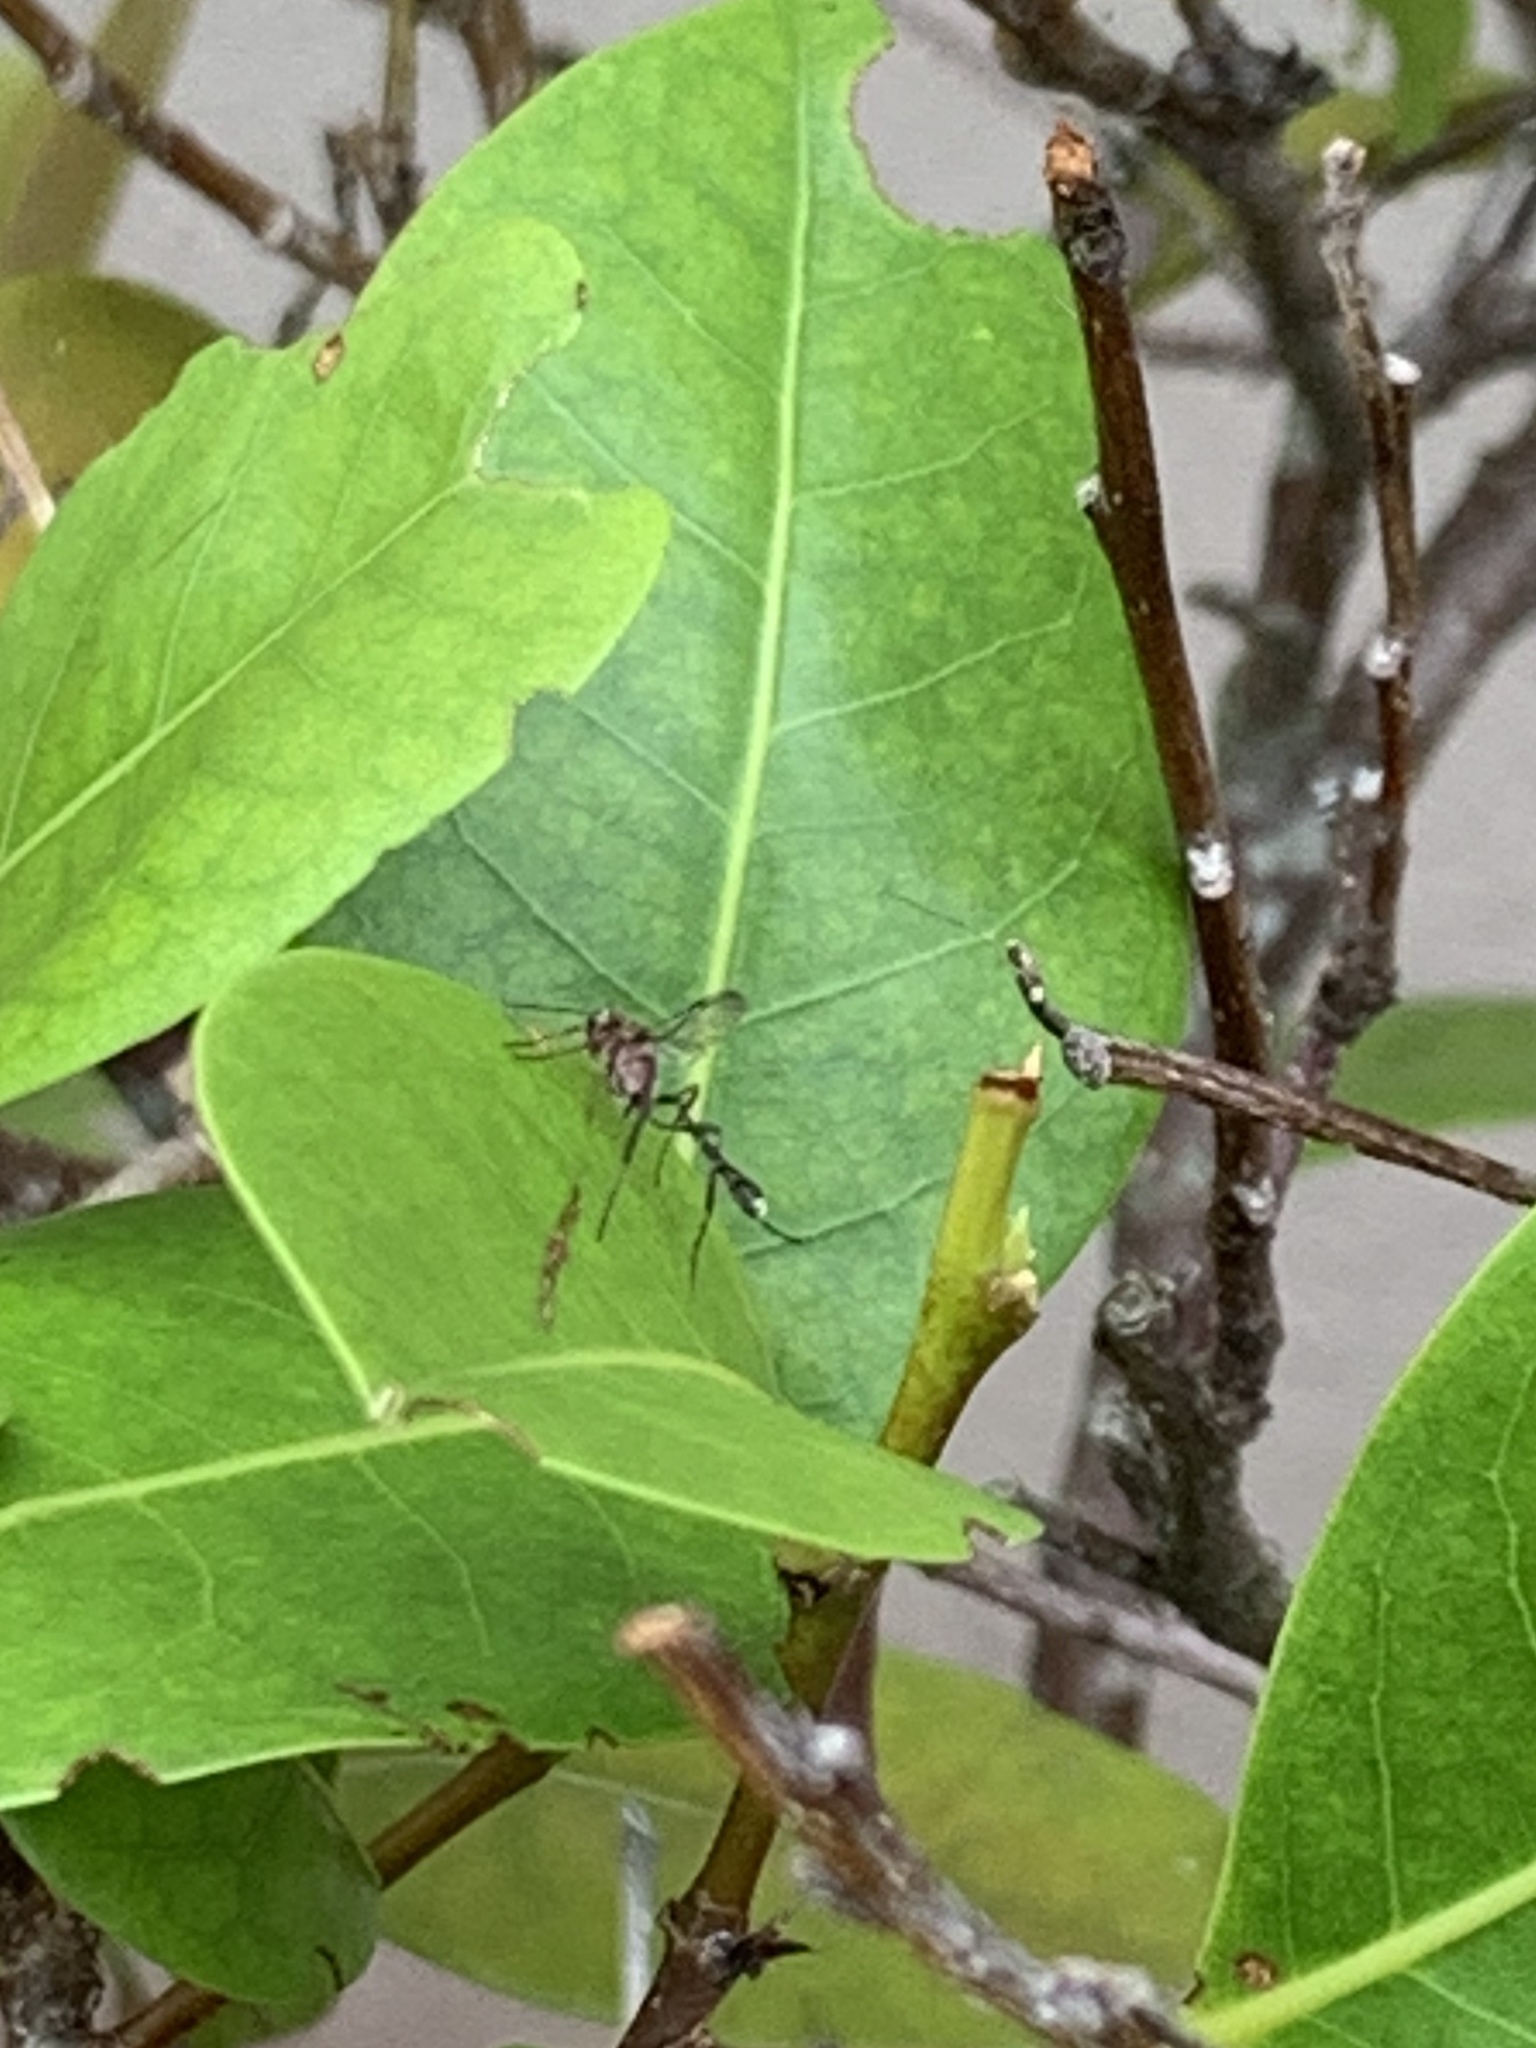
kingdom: Animalia
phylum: Arthropoda
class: Insecta
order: Hymenoptera
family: Ichneumonidae
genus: Anomalon
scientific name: Anomalon
